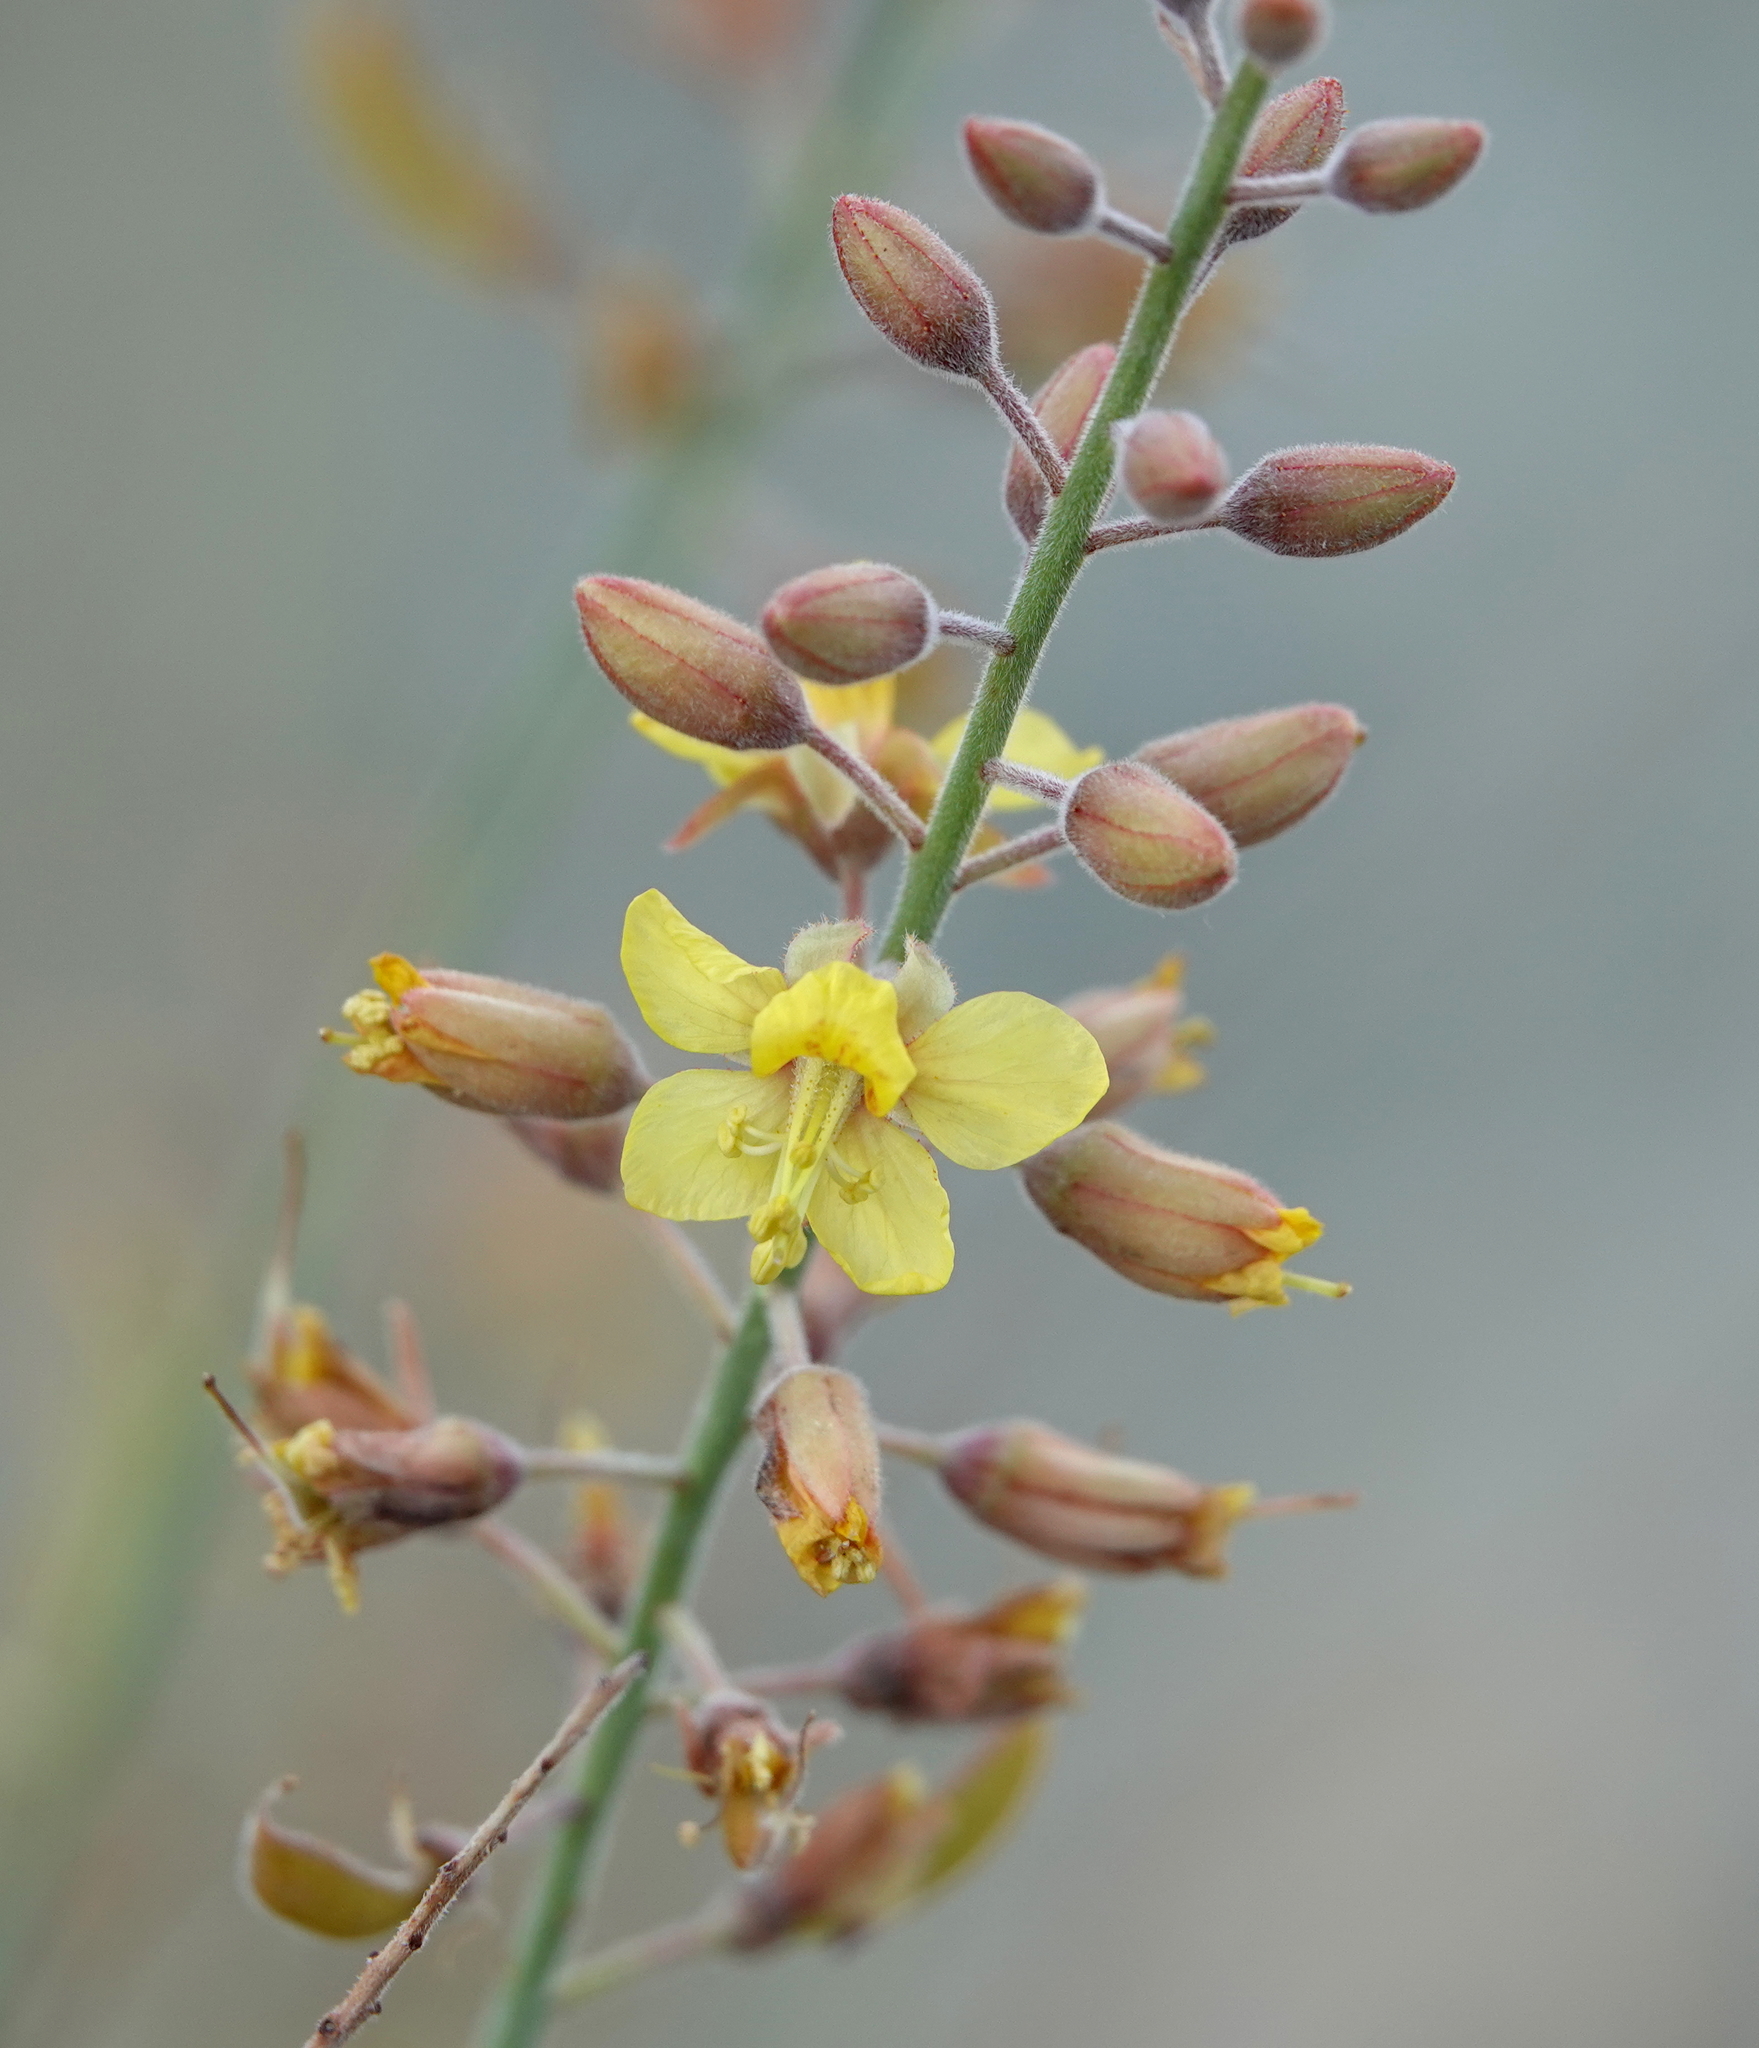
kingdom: Plantae
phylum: Tracheophyta
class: Magnoliopsida
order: Fabales
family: Fabaceae
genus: Hoffmannseggia
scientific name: Hoffmannseggia microphylla
